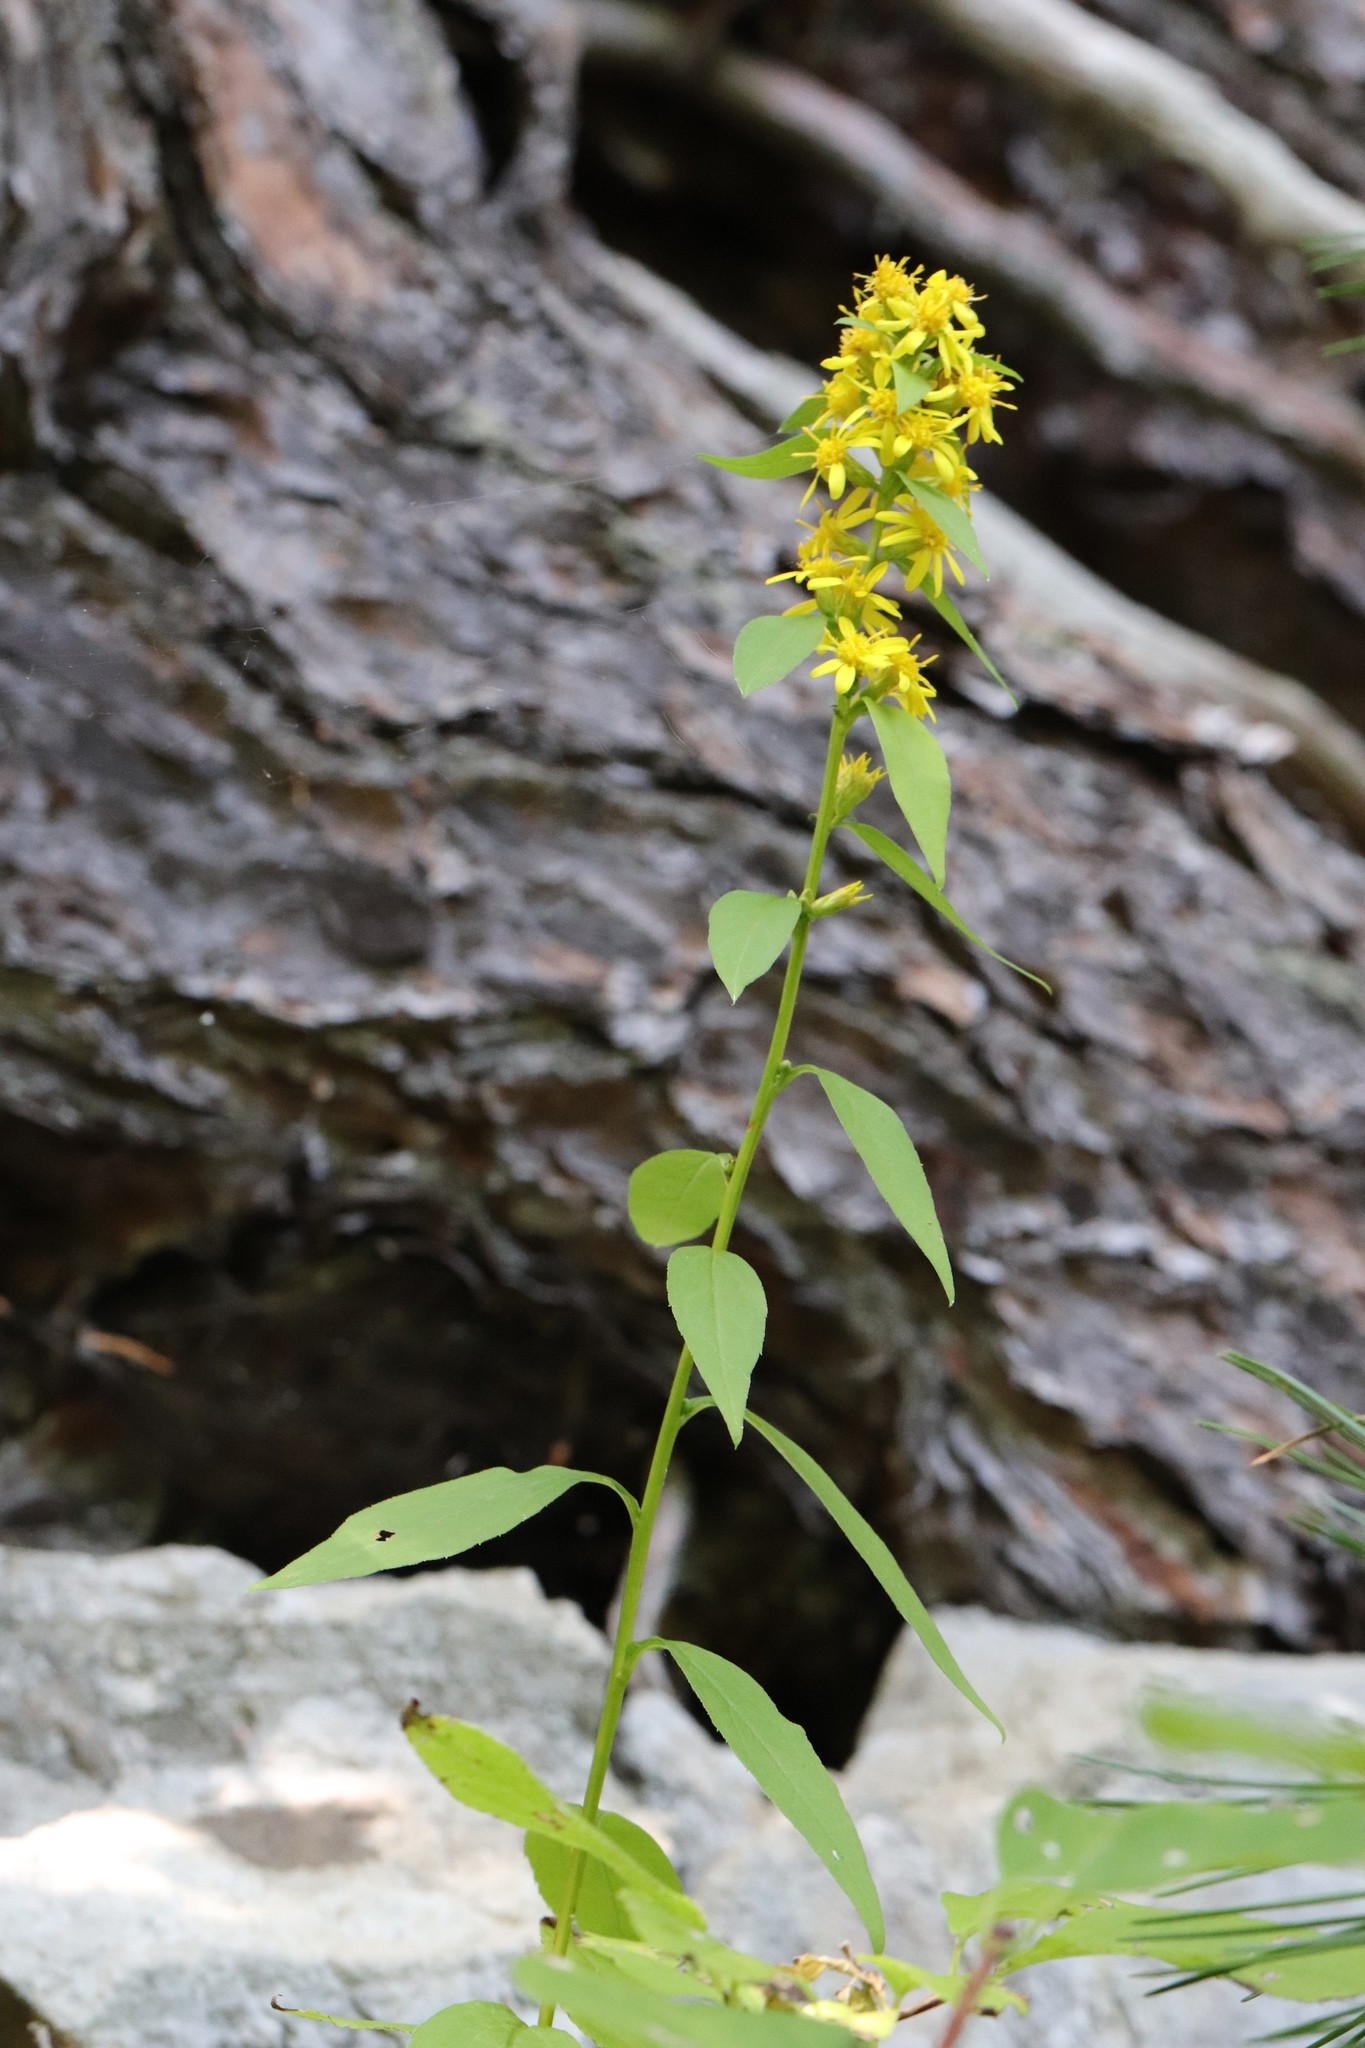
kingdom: Plantae
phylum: Tracheophyta
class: Magnoliopsida
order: Asterales
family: Asteraceae
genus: Solidago
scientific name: Solidago decurrens
